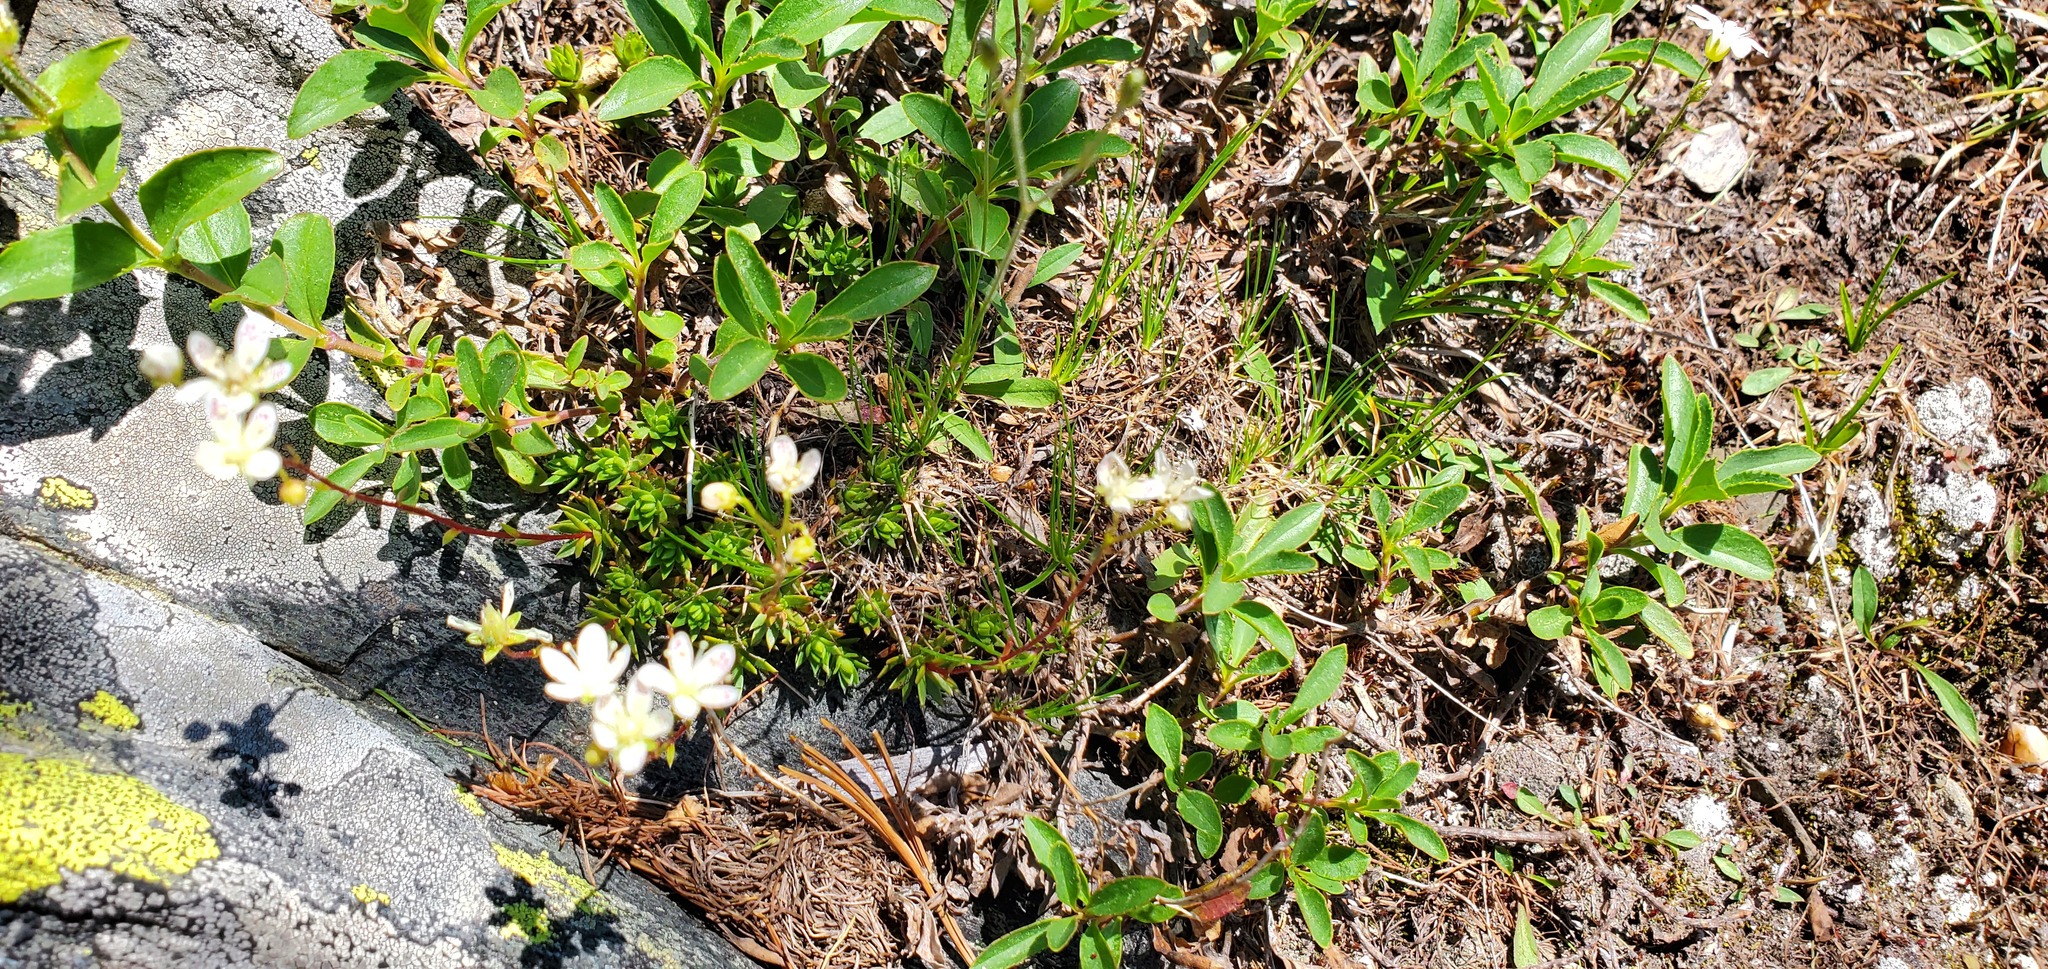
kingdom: Plantae
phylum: Tracheophyta
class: Magnoliopsida
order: Saxifragales
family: Saxifragaceae
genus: Saxifraga
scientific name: Saxifraga bronchialis
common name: Matted saxifrage
